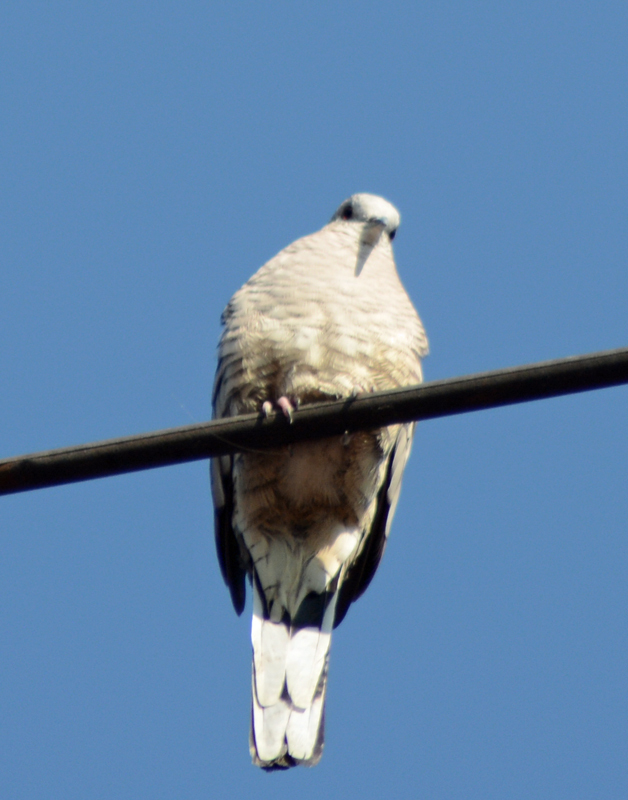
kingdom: Animalia
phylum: Chordata
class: Aves
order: Columbiformes
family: Columbidae
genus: Columbina
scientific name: Columbina inca
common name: Inca dove
